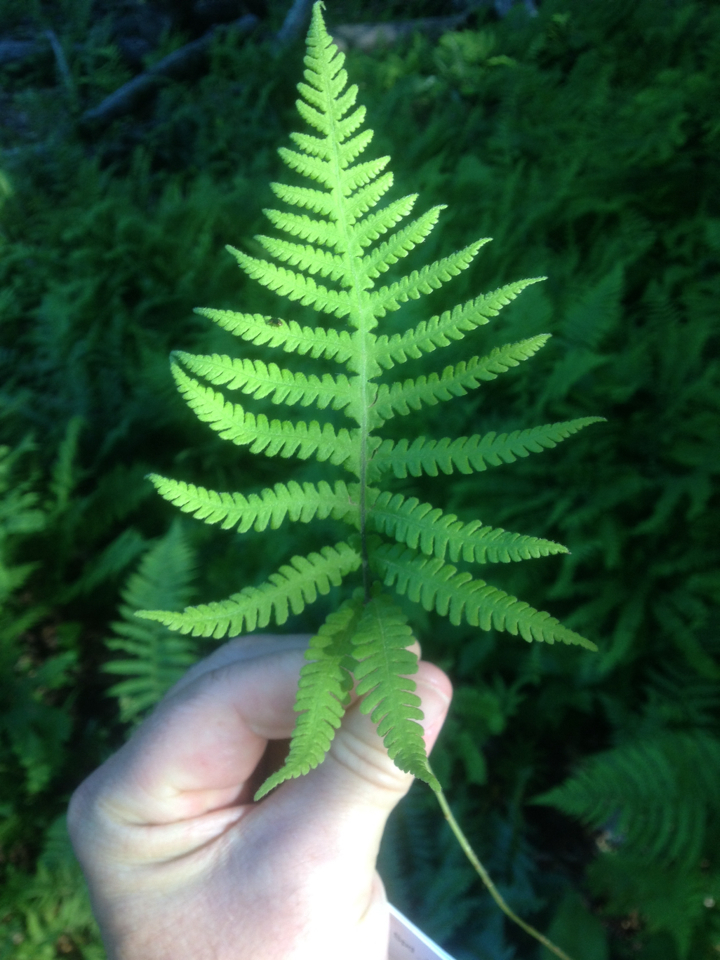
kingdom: Plantae
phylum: Tracheophyta
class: Polypodiopsida
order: Polypodiales
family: Thelypteridaceae
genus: Phegopteris
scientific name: Phegopteris connectilis
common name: Beech fern
